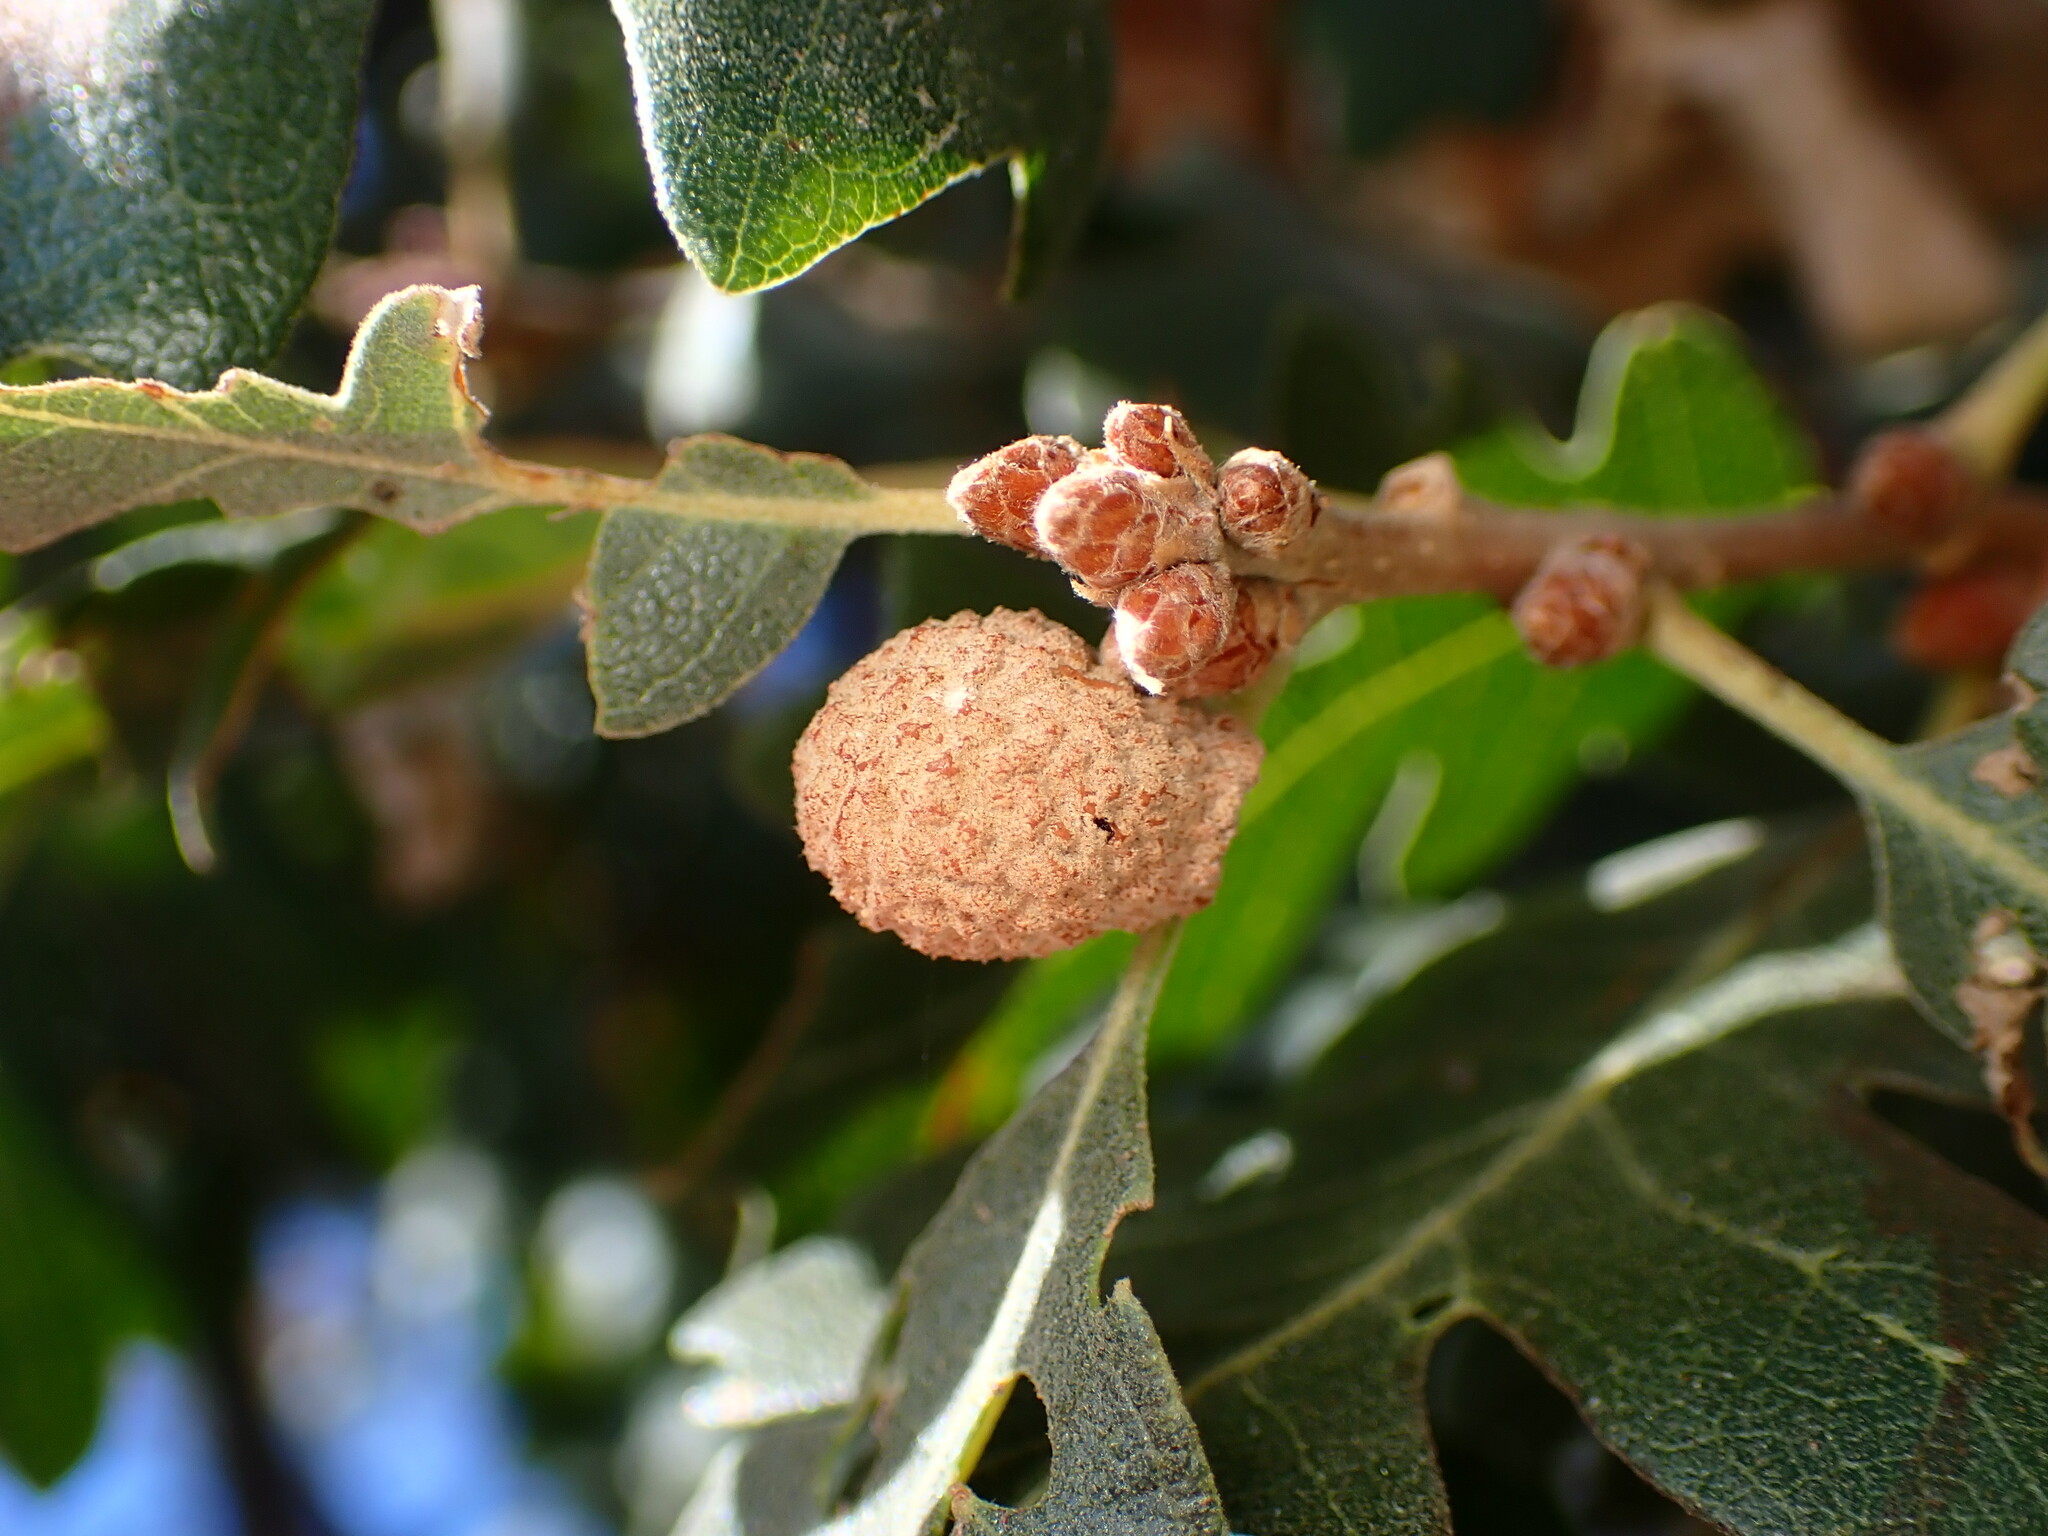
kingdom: Animalia
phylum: Arthropoda
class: Insecta
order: Hymenoptera
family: Cynipidae
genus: Cynips
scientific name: Cynips conspicua
